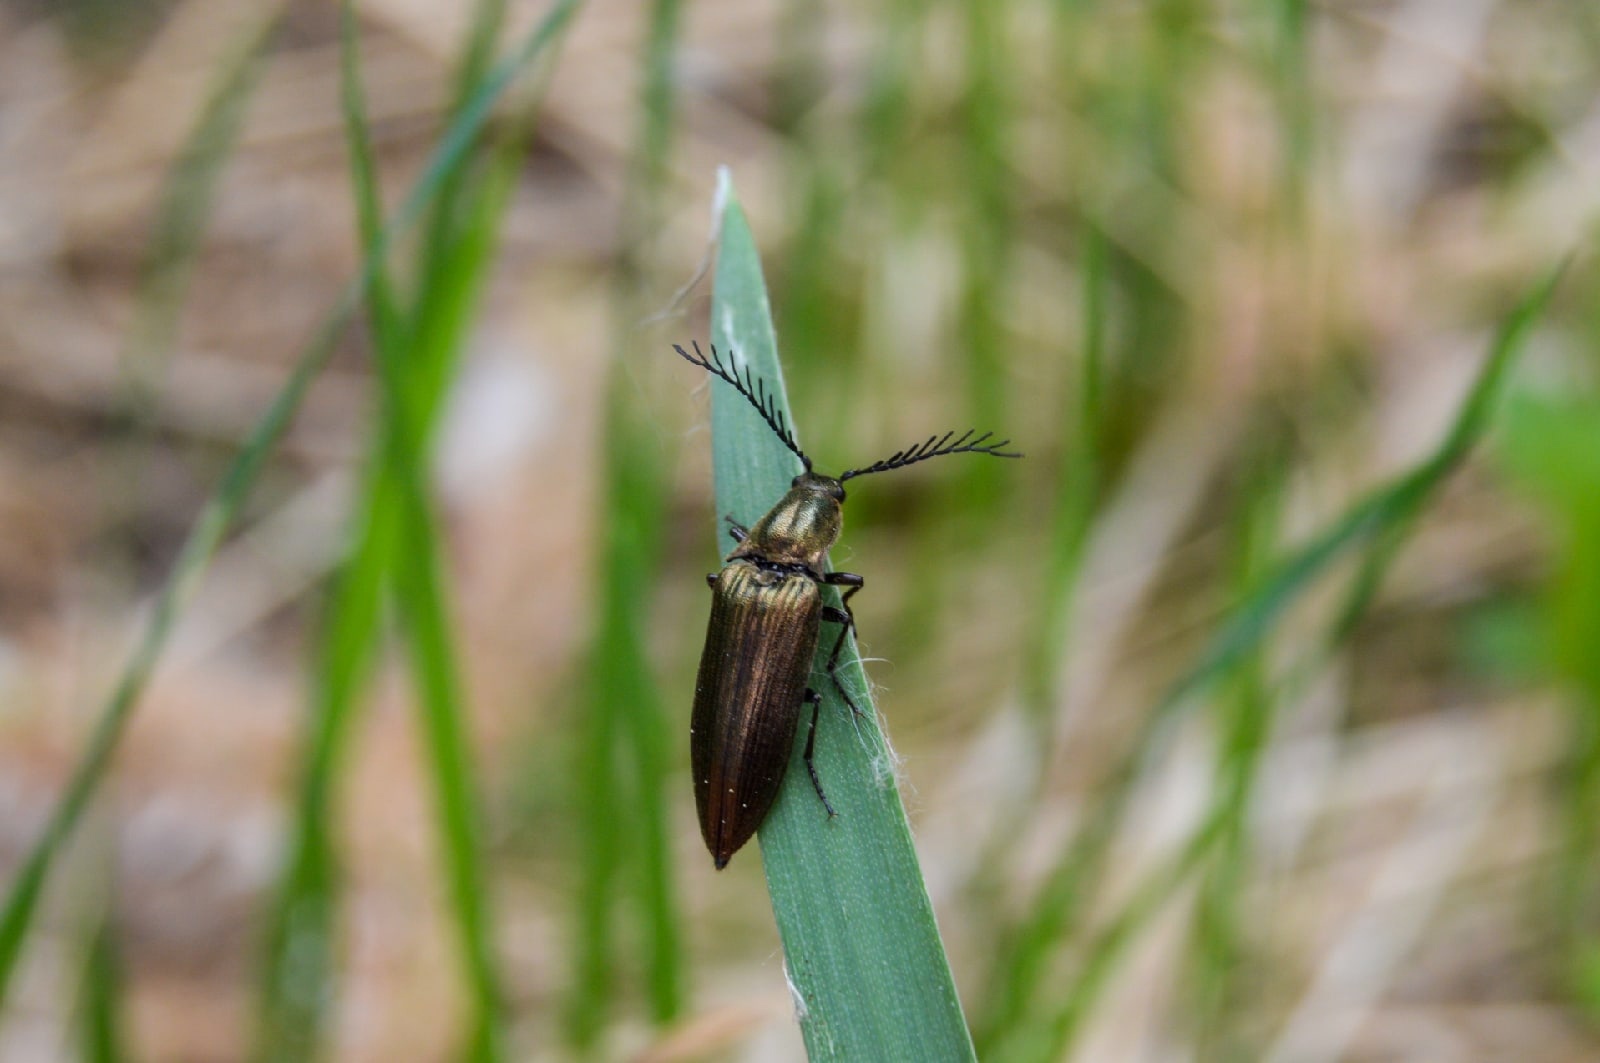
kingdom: Animalia
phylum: Arthropoda
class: Insecta
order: Coleoptera
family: Elateridae
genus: Ctenicera
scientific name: Ctenicera pectinicornis
